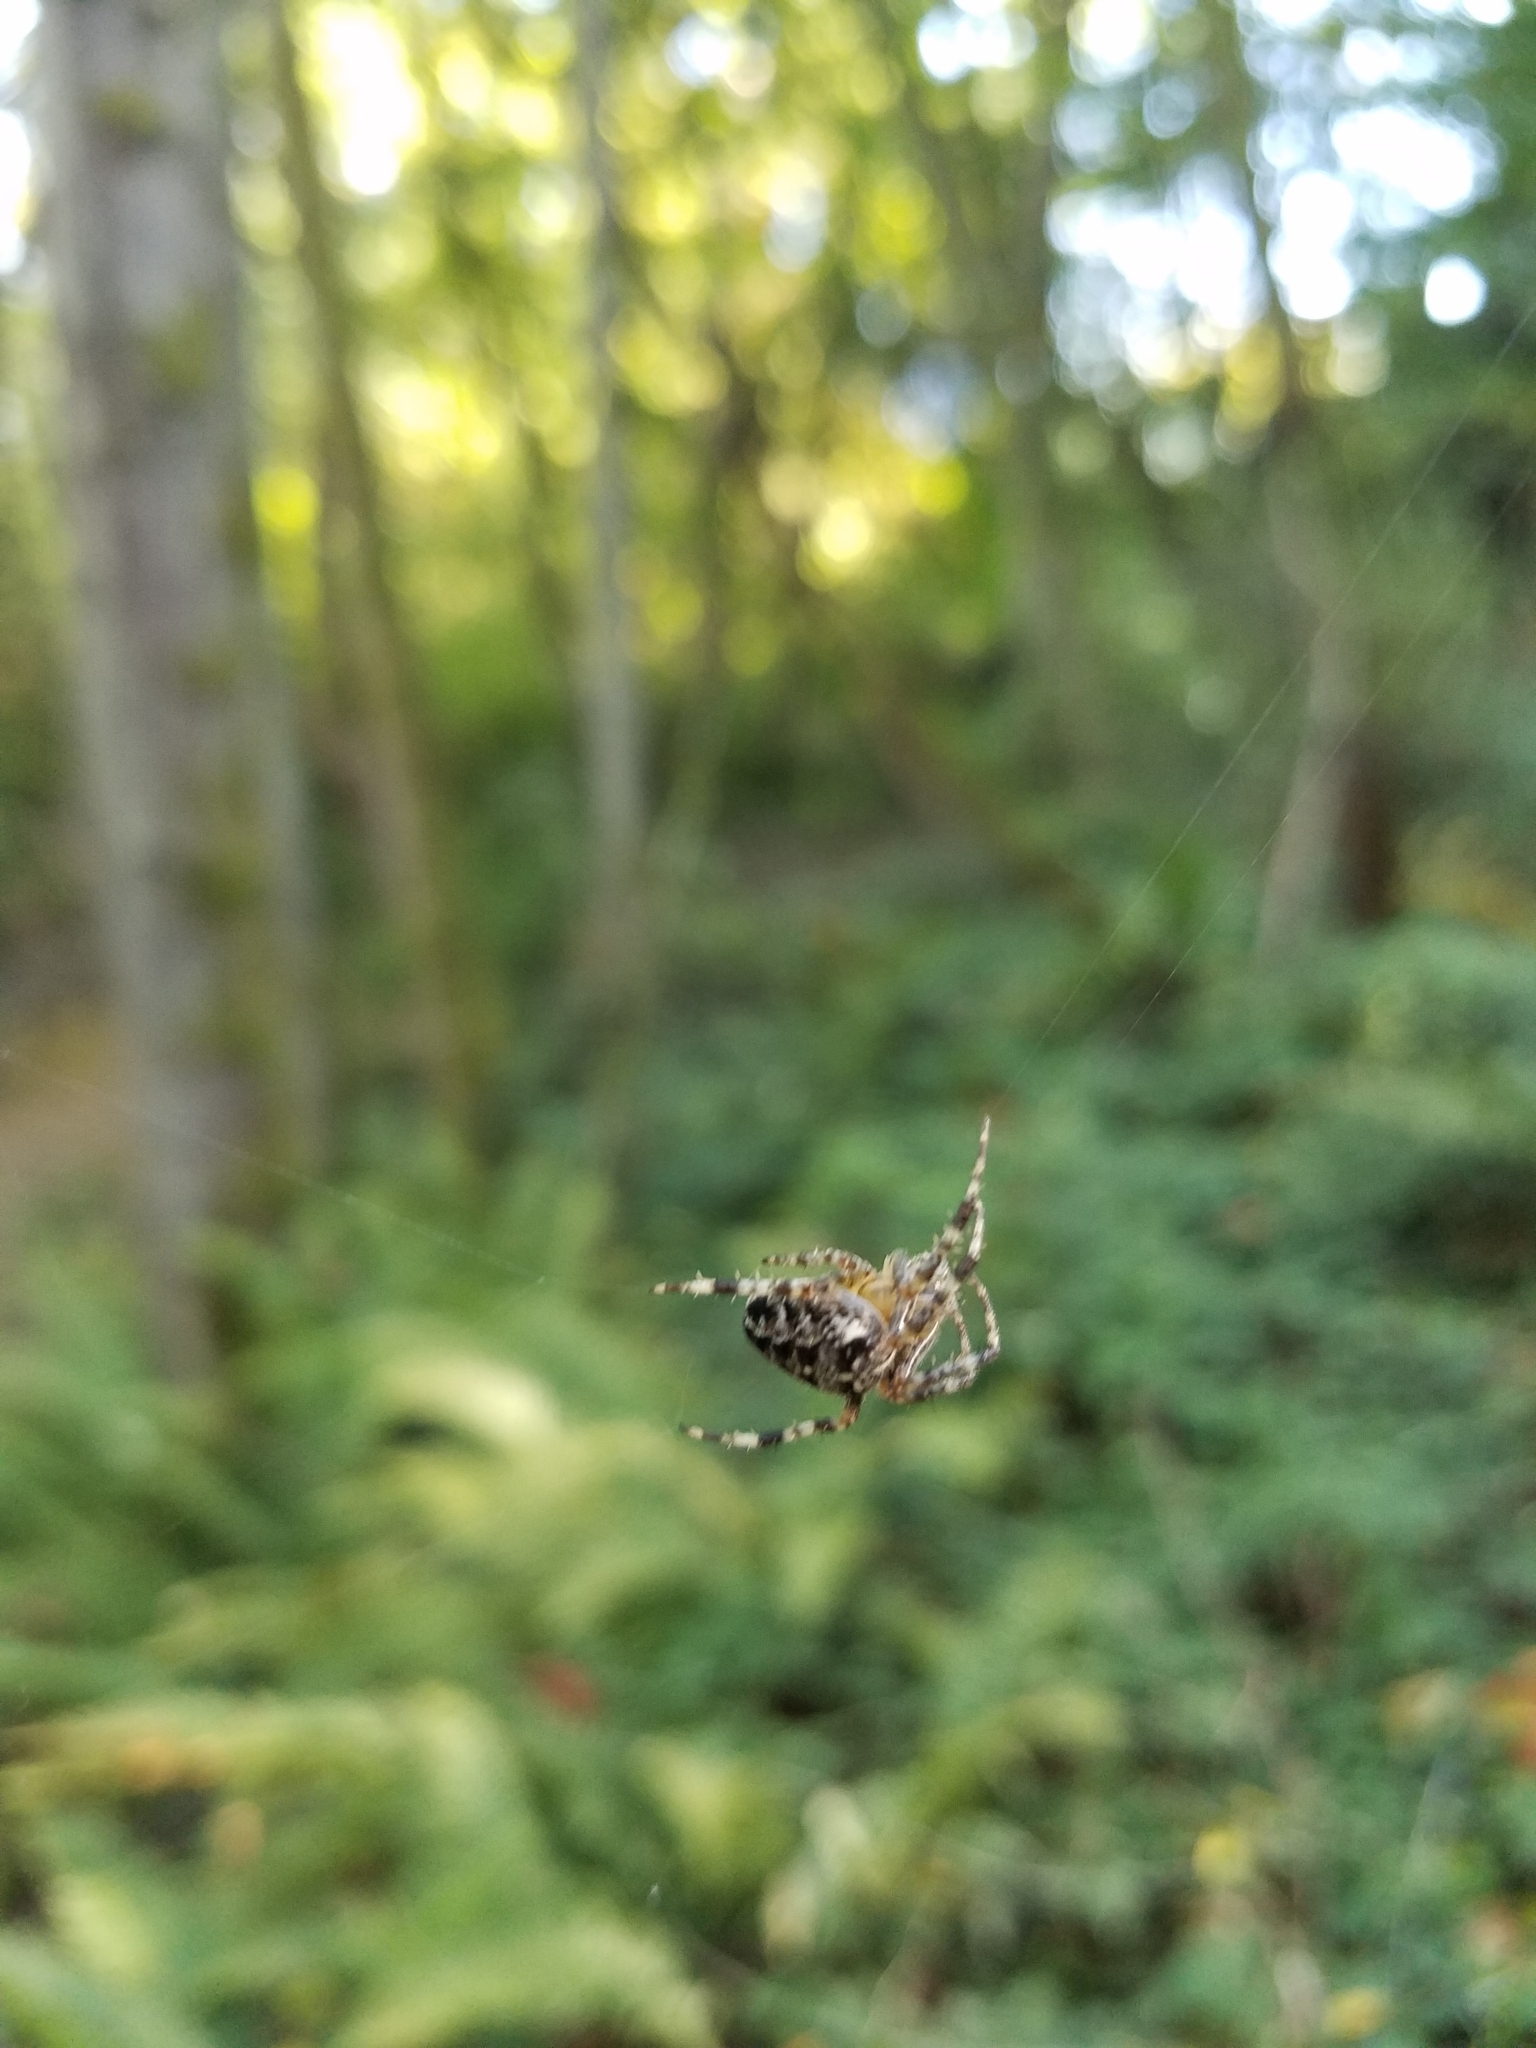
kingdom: Animalia
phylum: Arthropoda
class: Arachnida
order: Araneae
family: Araneidae
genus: Araneus
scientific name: Araneus diadematus
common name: Cross orbweaver
